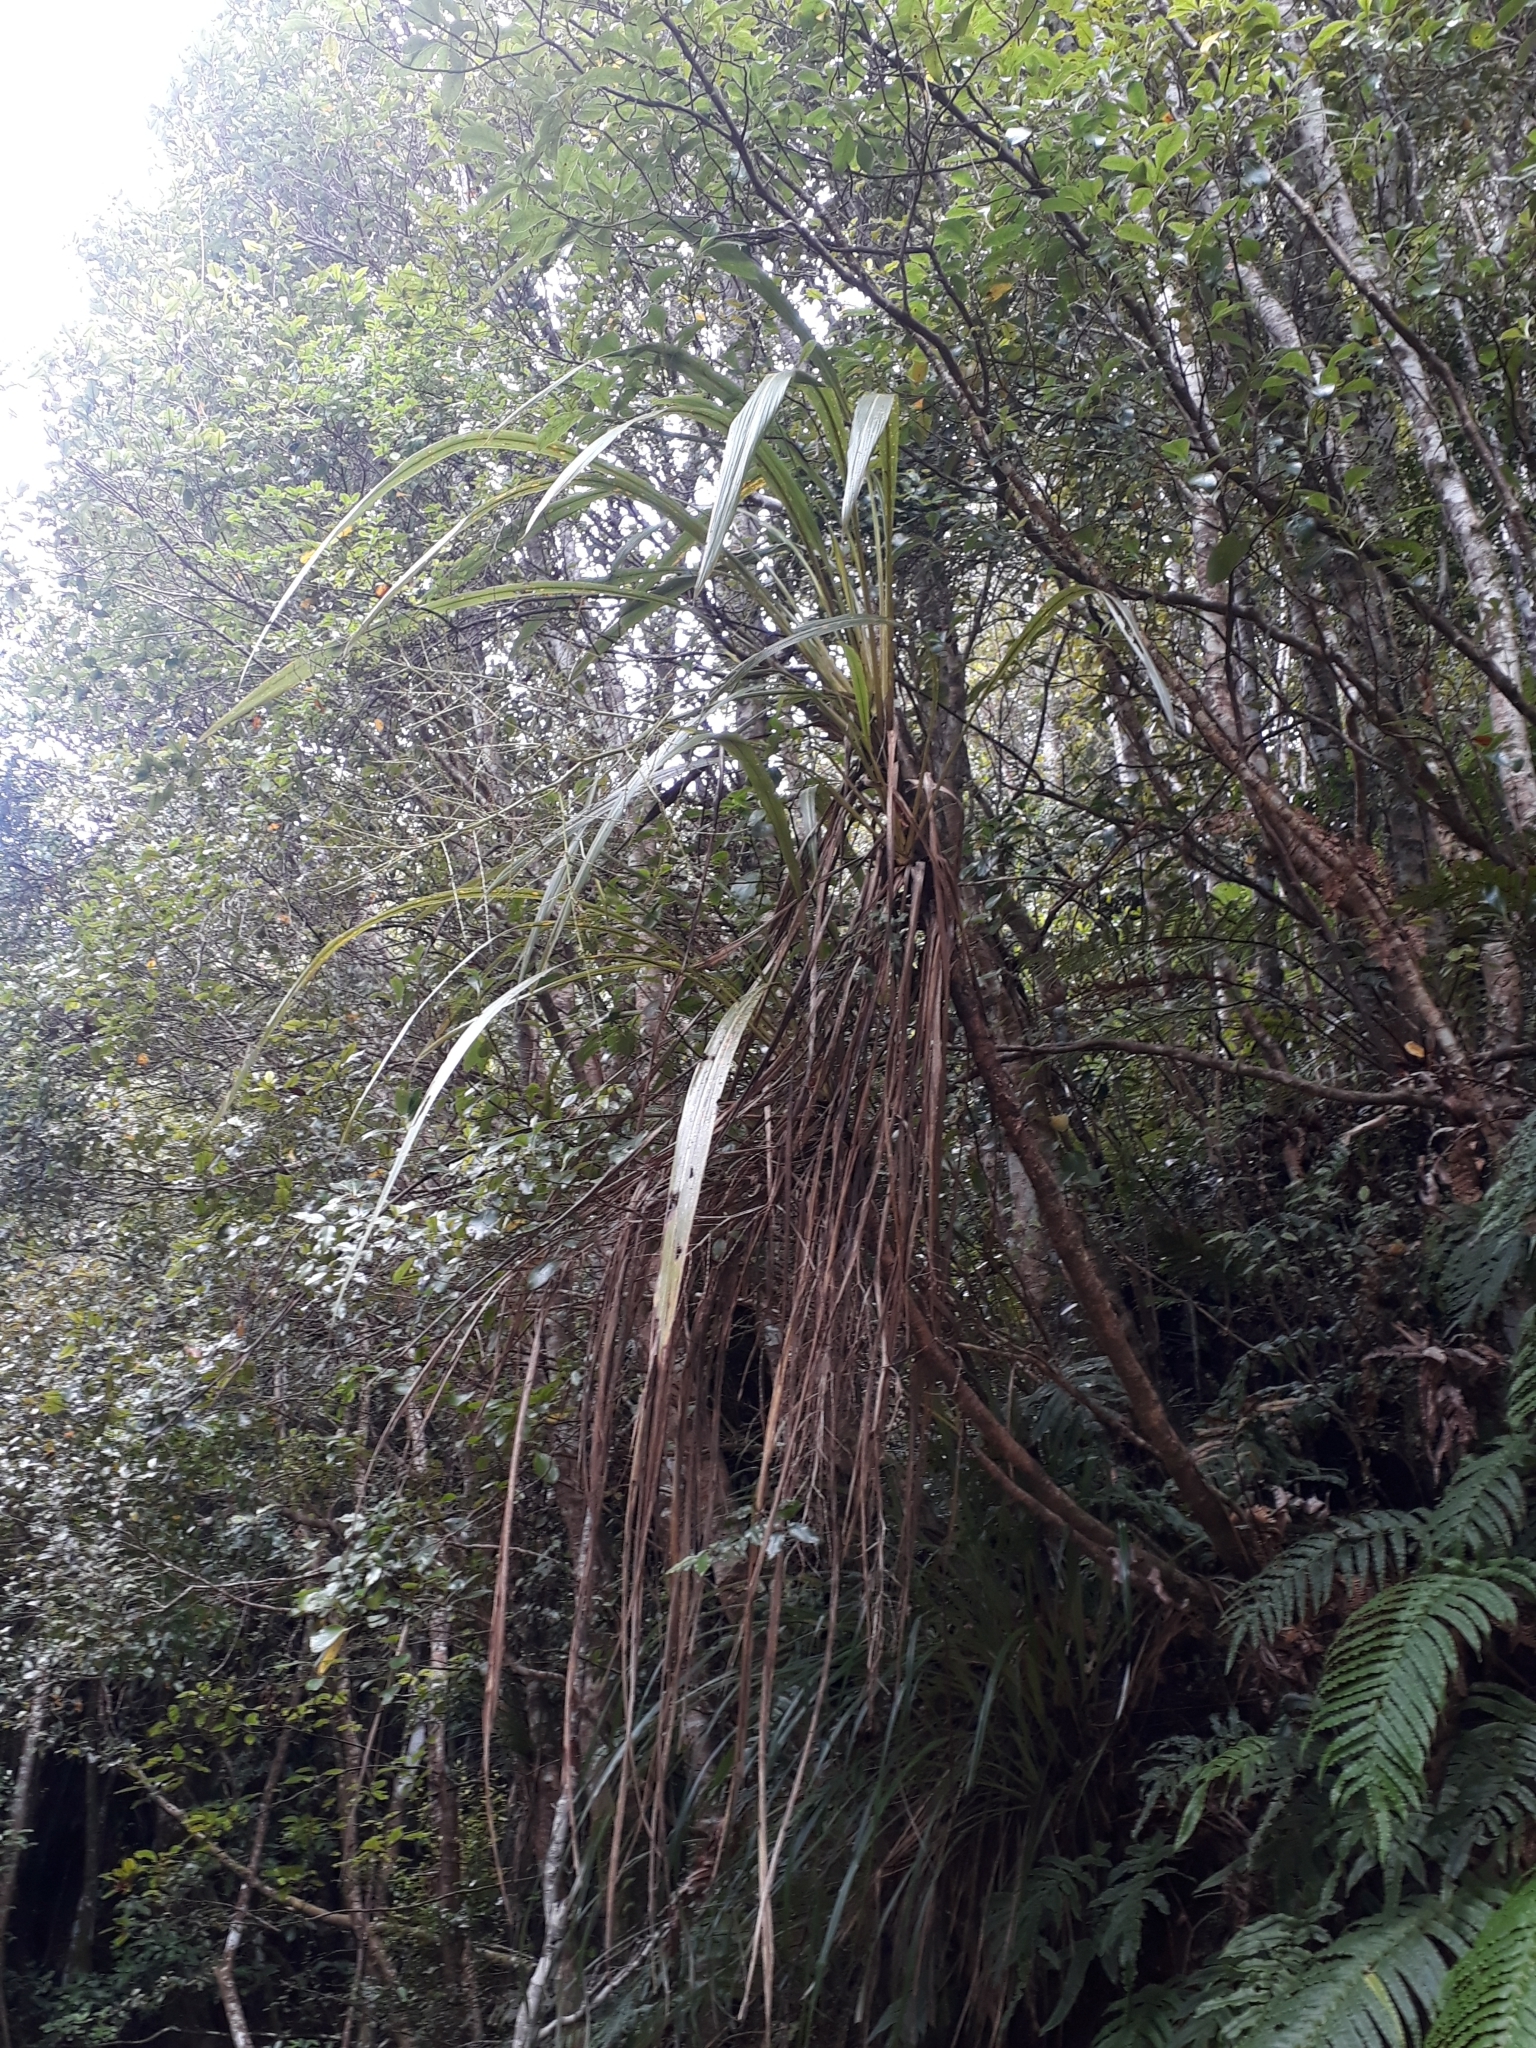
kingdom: Plantae
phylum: Tracheophyta
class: Liliopsida
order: Asparagales
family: Asparagaceae
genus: Cordyline
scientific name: Cordyline banksii
